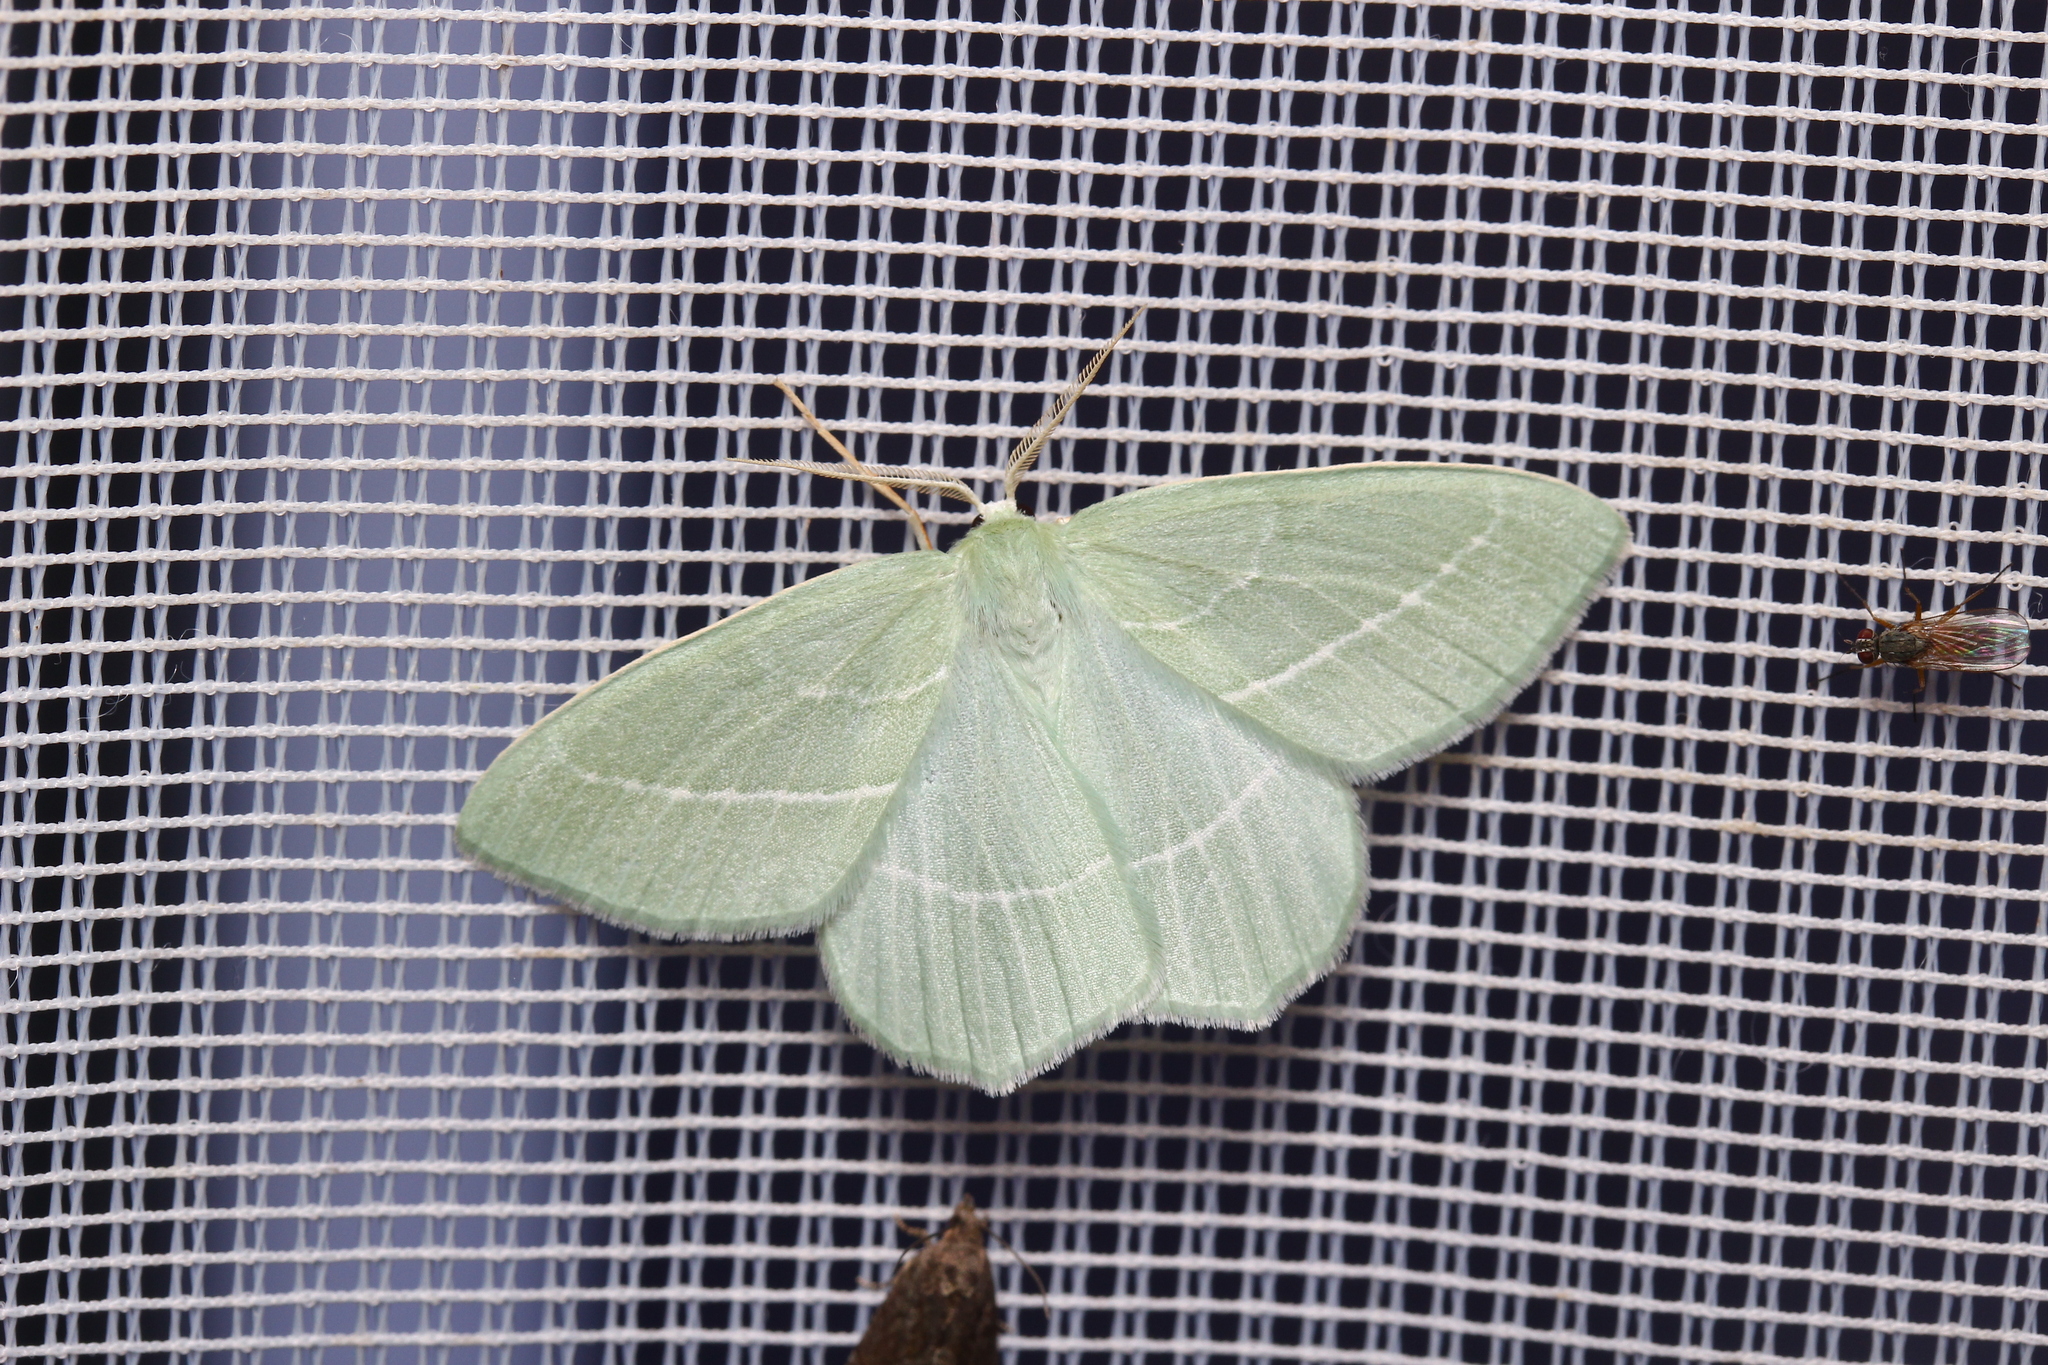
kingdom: Animalia
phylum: Arthropoda
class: Insecta
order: Lepidoptera
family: Geometridae
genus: Hemistola
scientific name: Hemistola chrysoprasaria
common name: Small emerald
